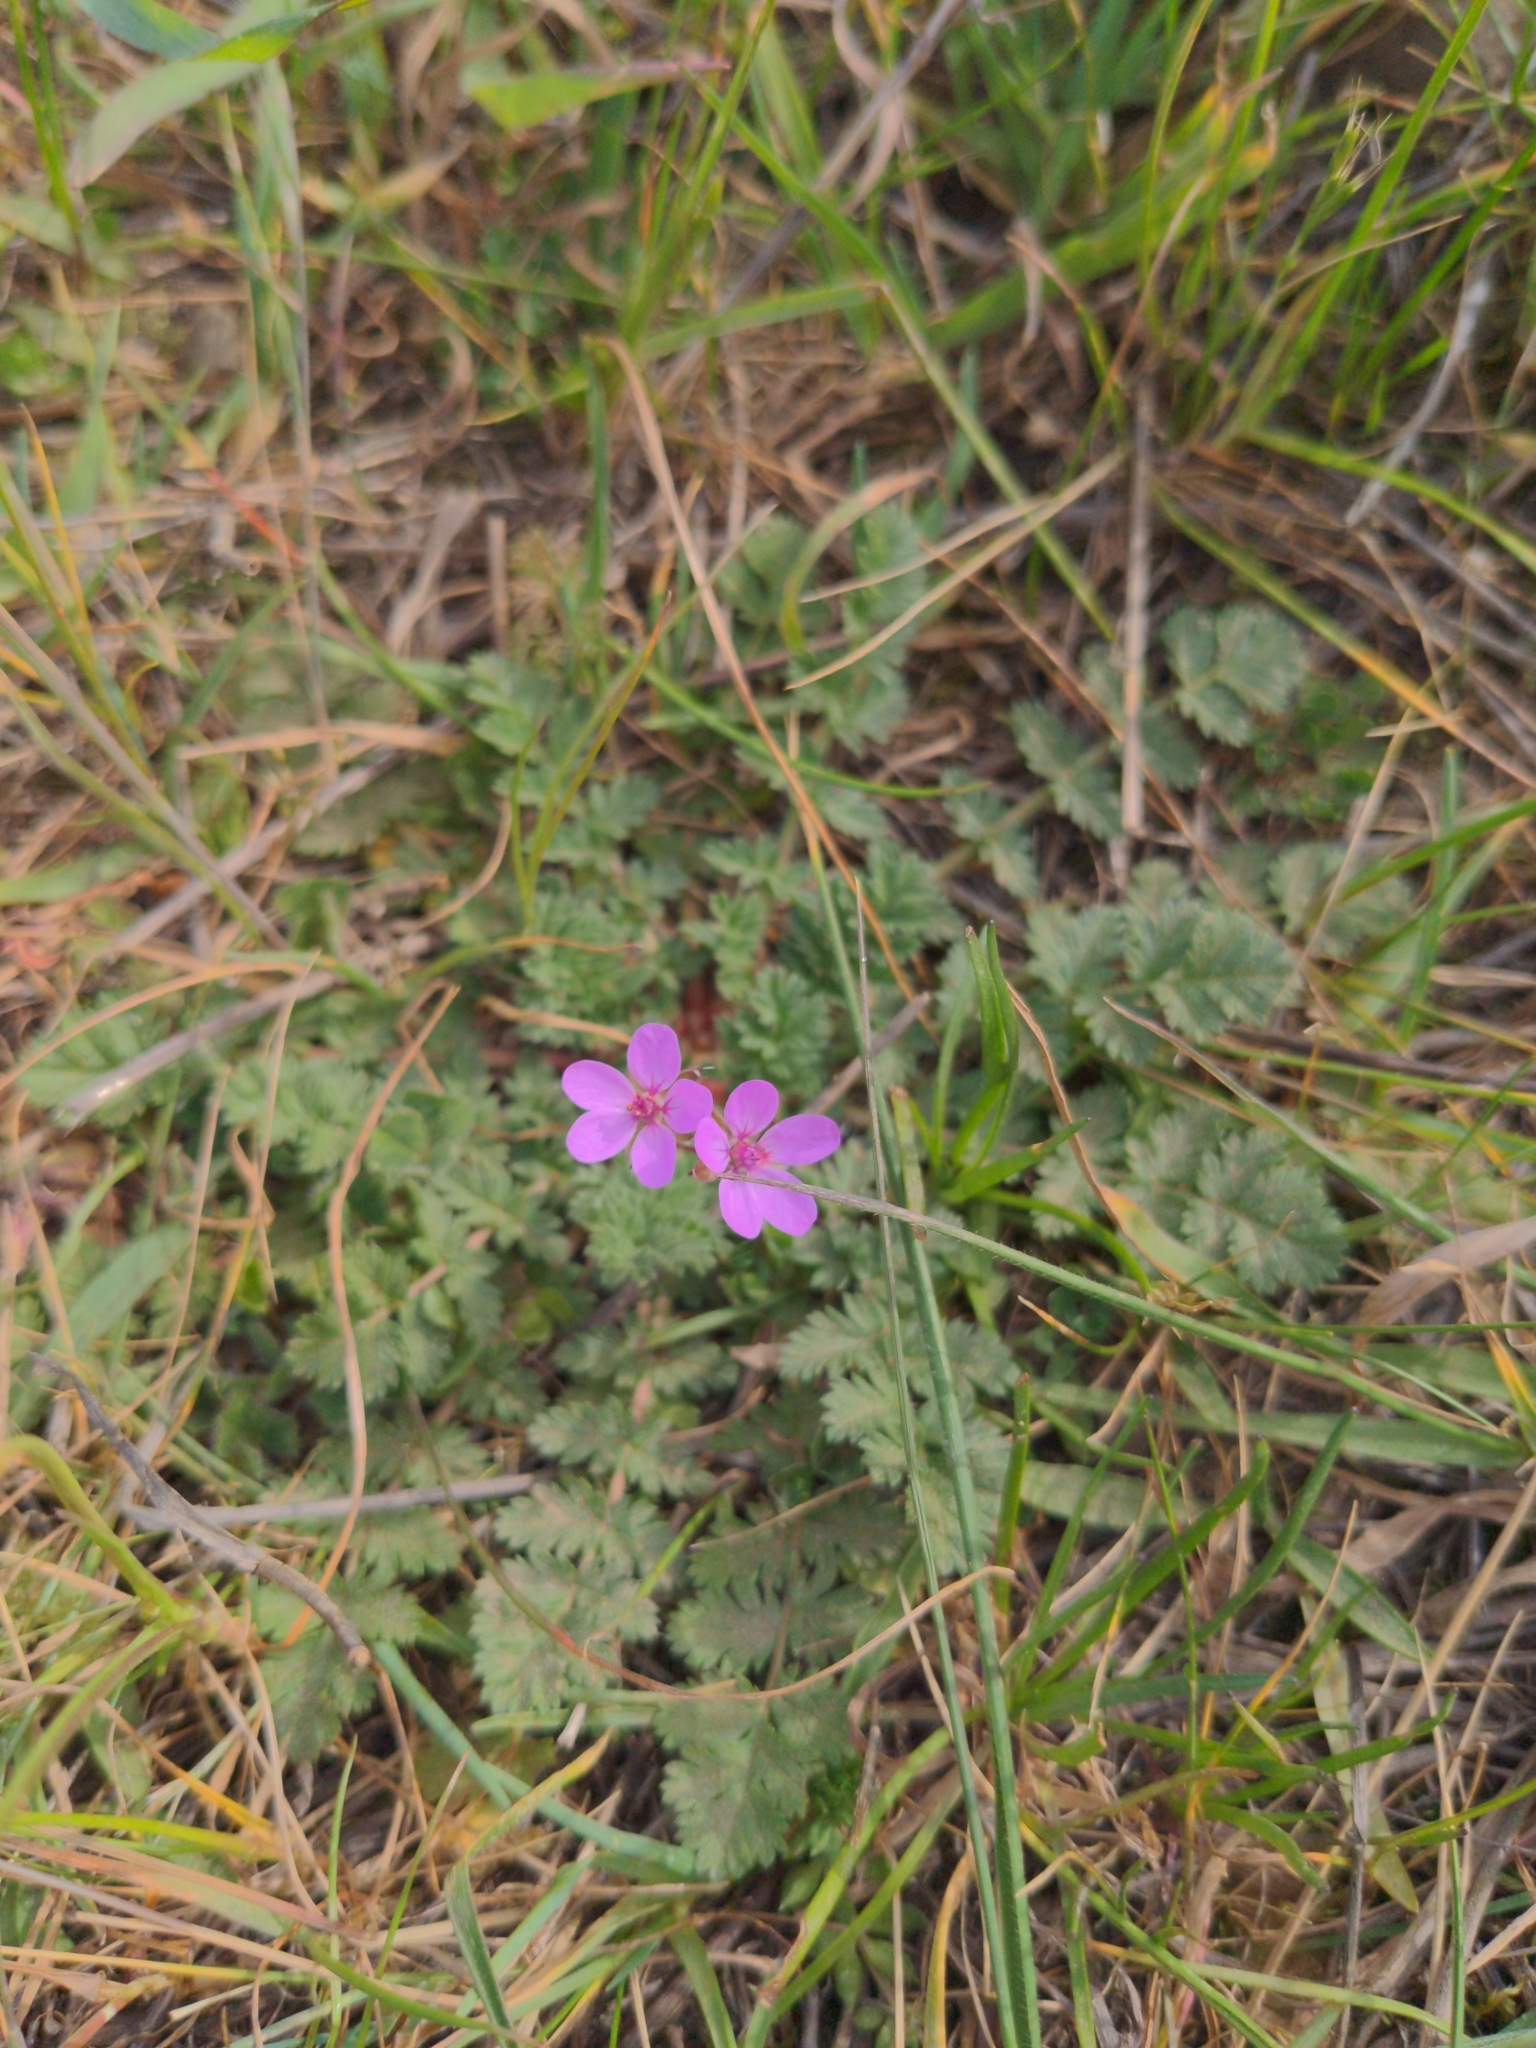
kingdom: Plantae
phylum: Tracheophyta
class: Magnoliopsida
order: Geraniales
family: Geraniaceae
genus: Erodium
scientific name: Erodium cicutarium
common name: Common stork's-bill
